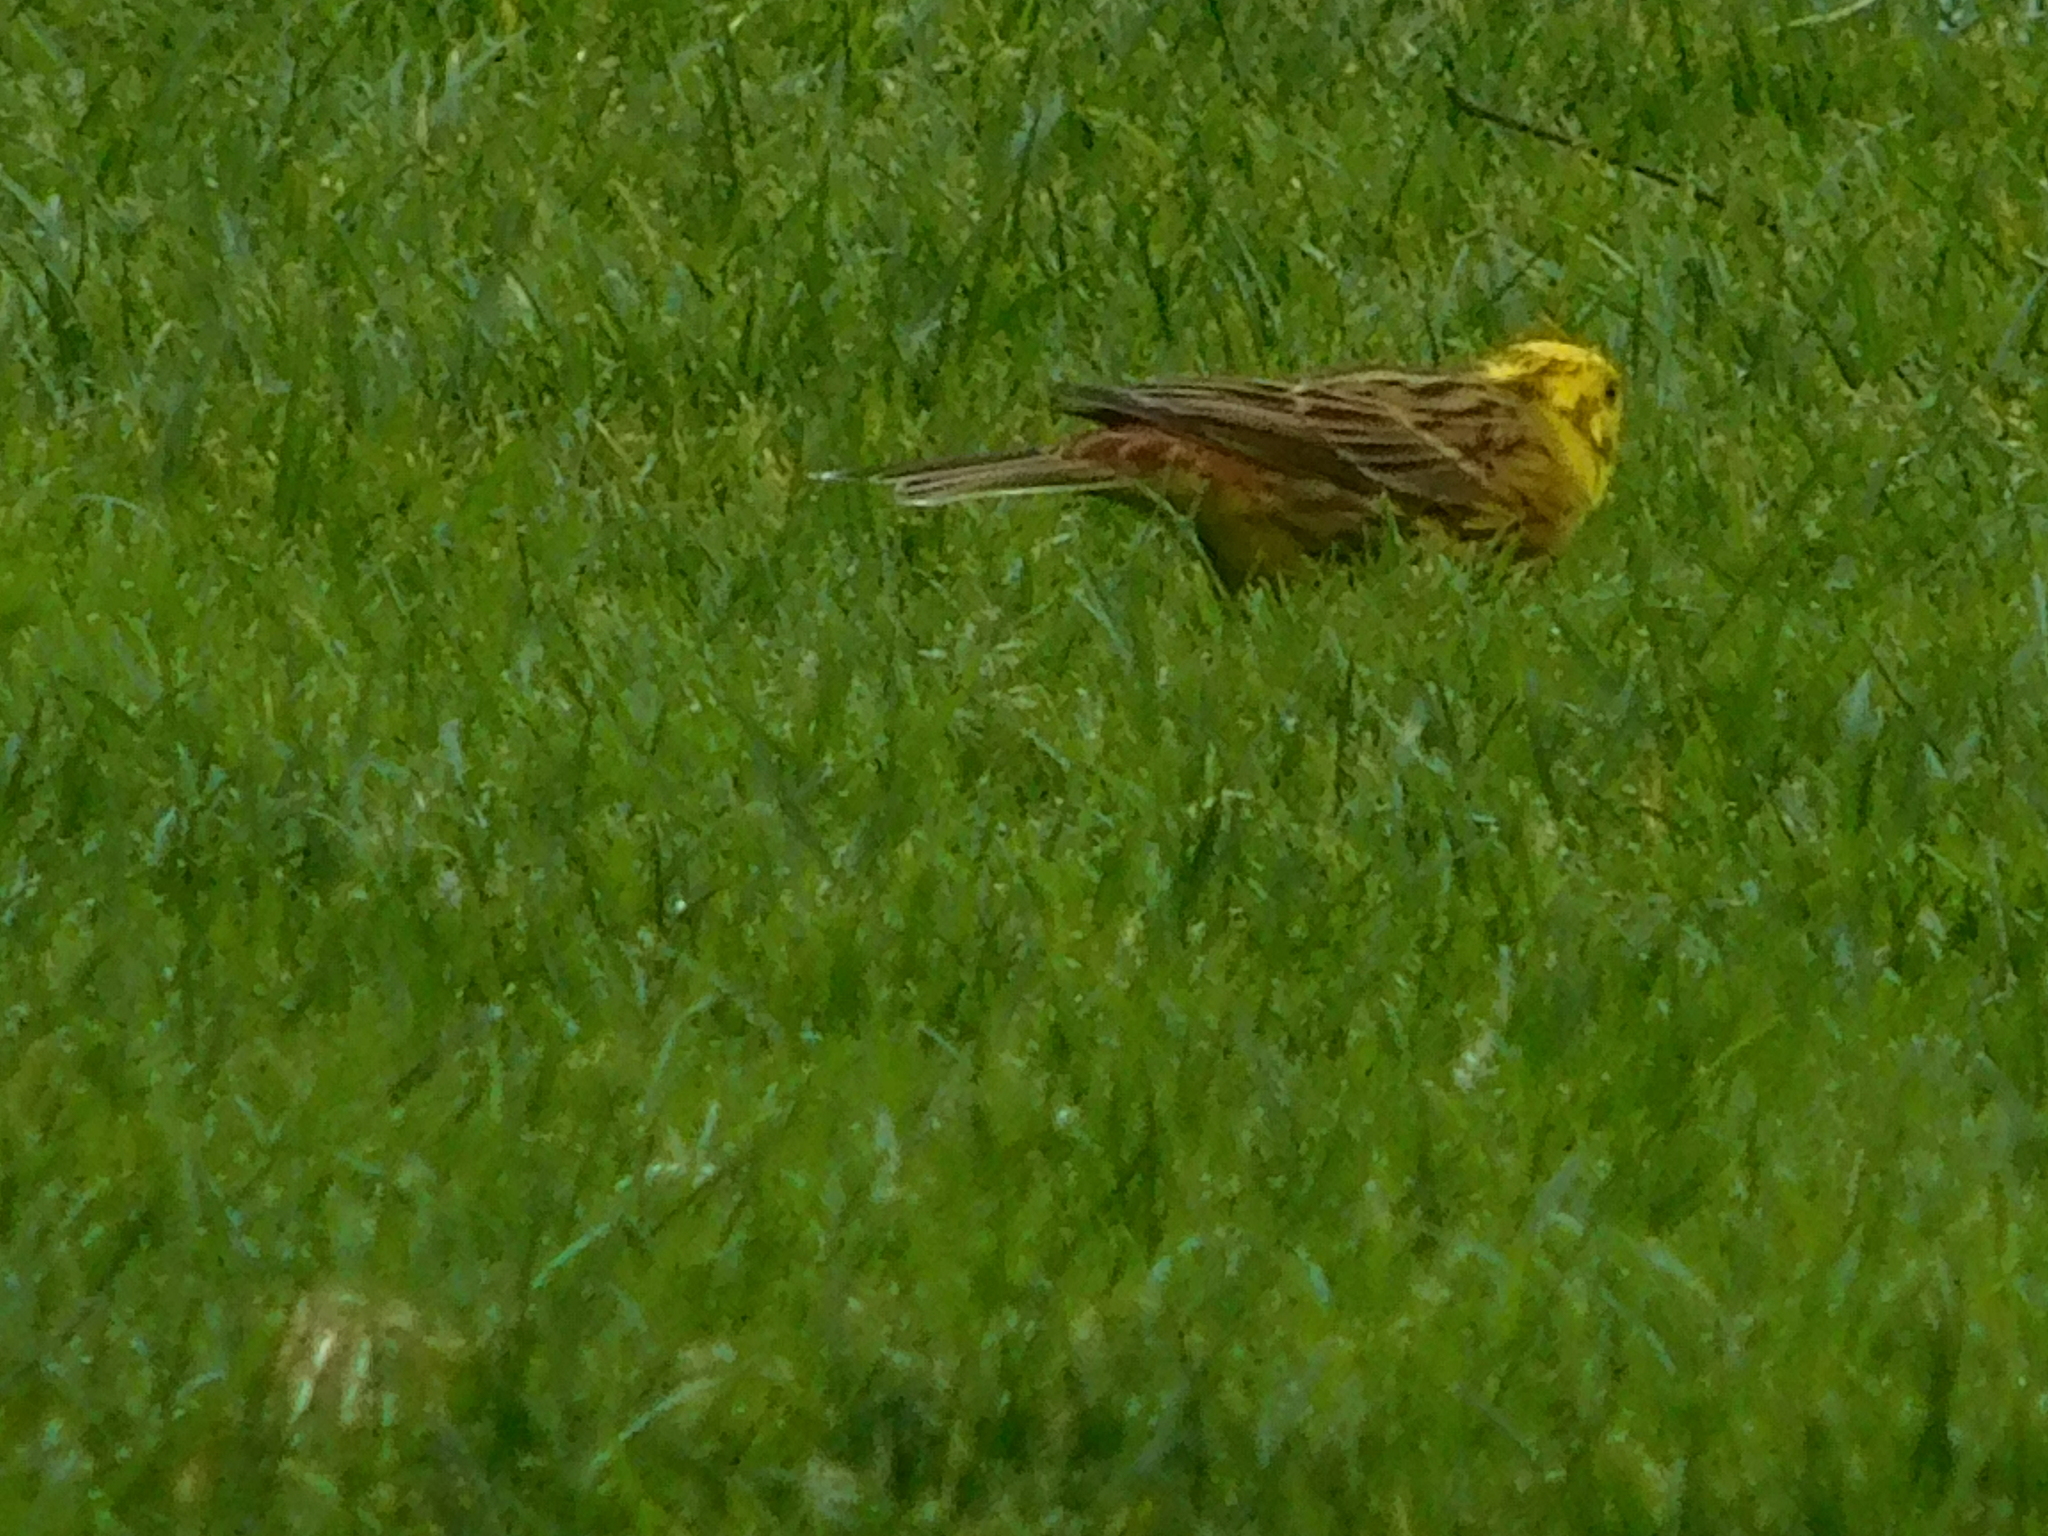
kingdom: Animalia
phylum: Chordata
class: Aves
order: Passeriformes
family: Emberizidae
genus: Emberiza
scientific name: Emberiza citrinella
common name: Yellowhammer
